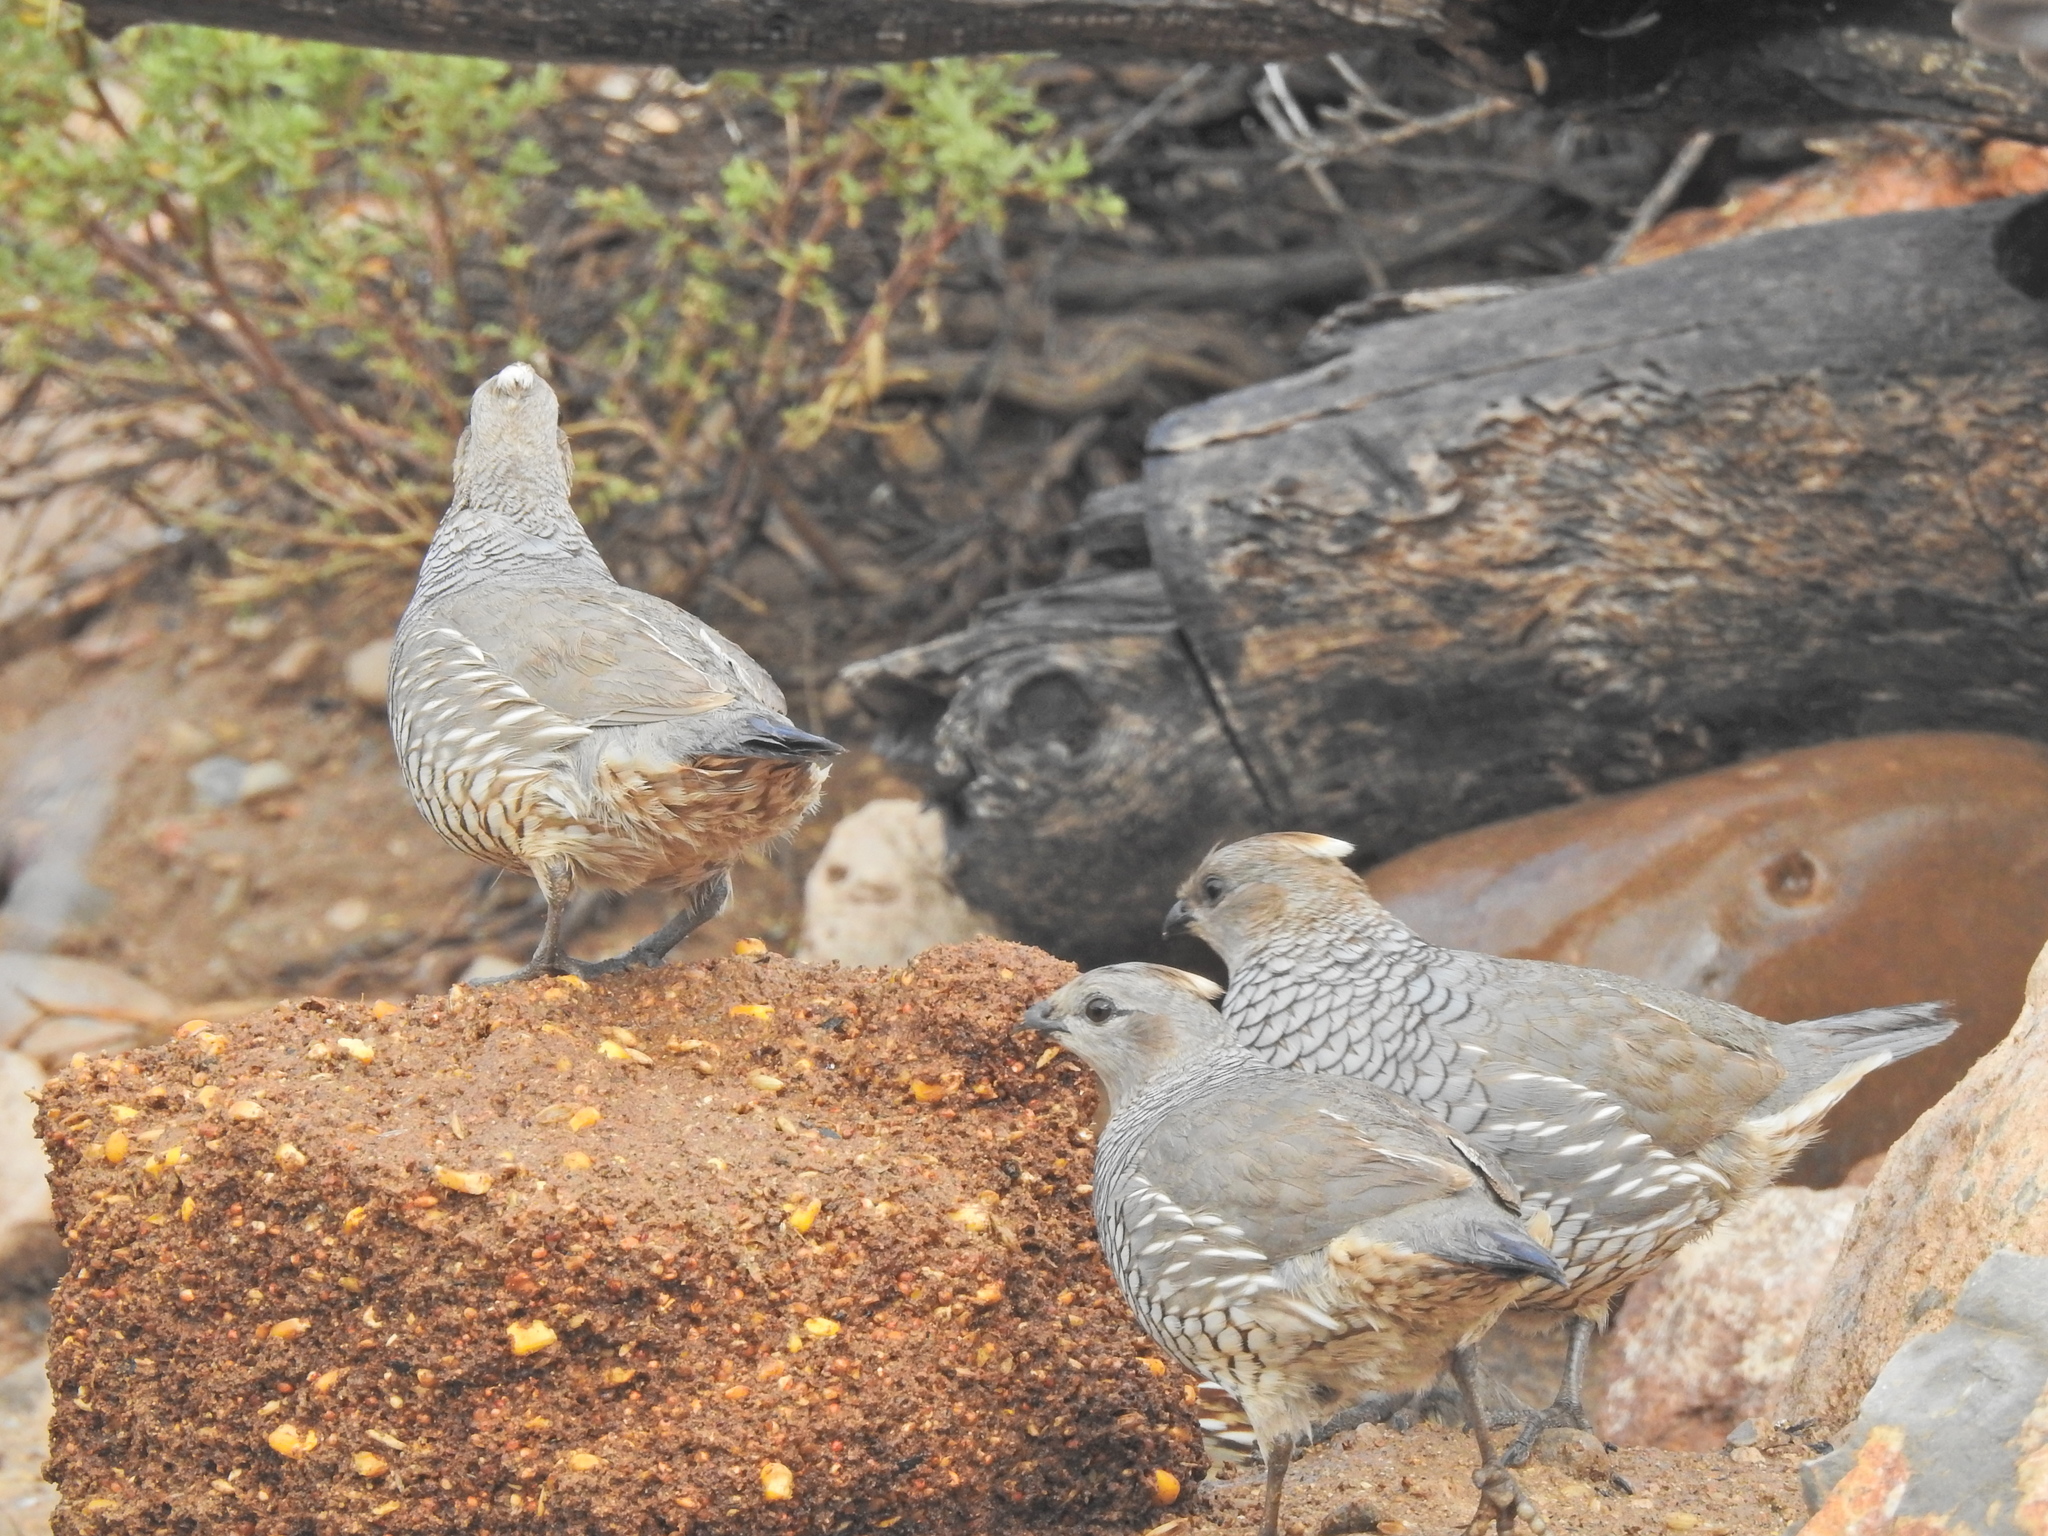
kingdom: Animalia
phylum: Chordata
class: Aves
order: Galliformes
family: Odontophoridae
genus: Callipepla
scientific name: Callipepla squamata
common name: Scaled quail
